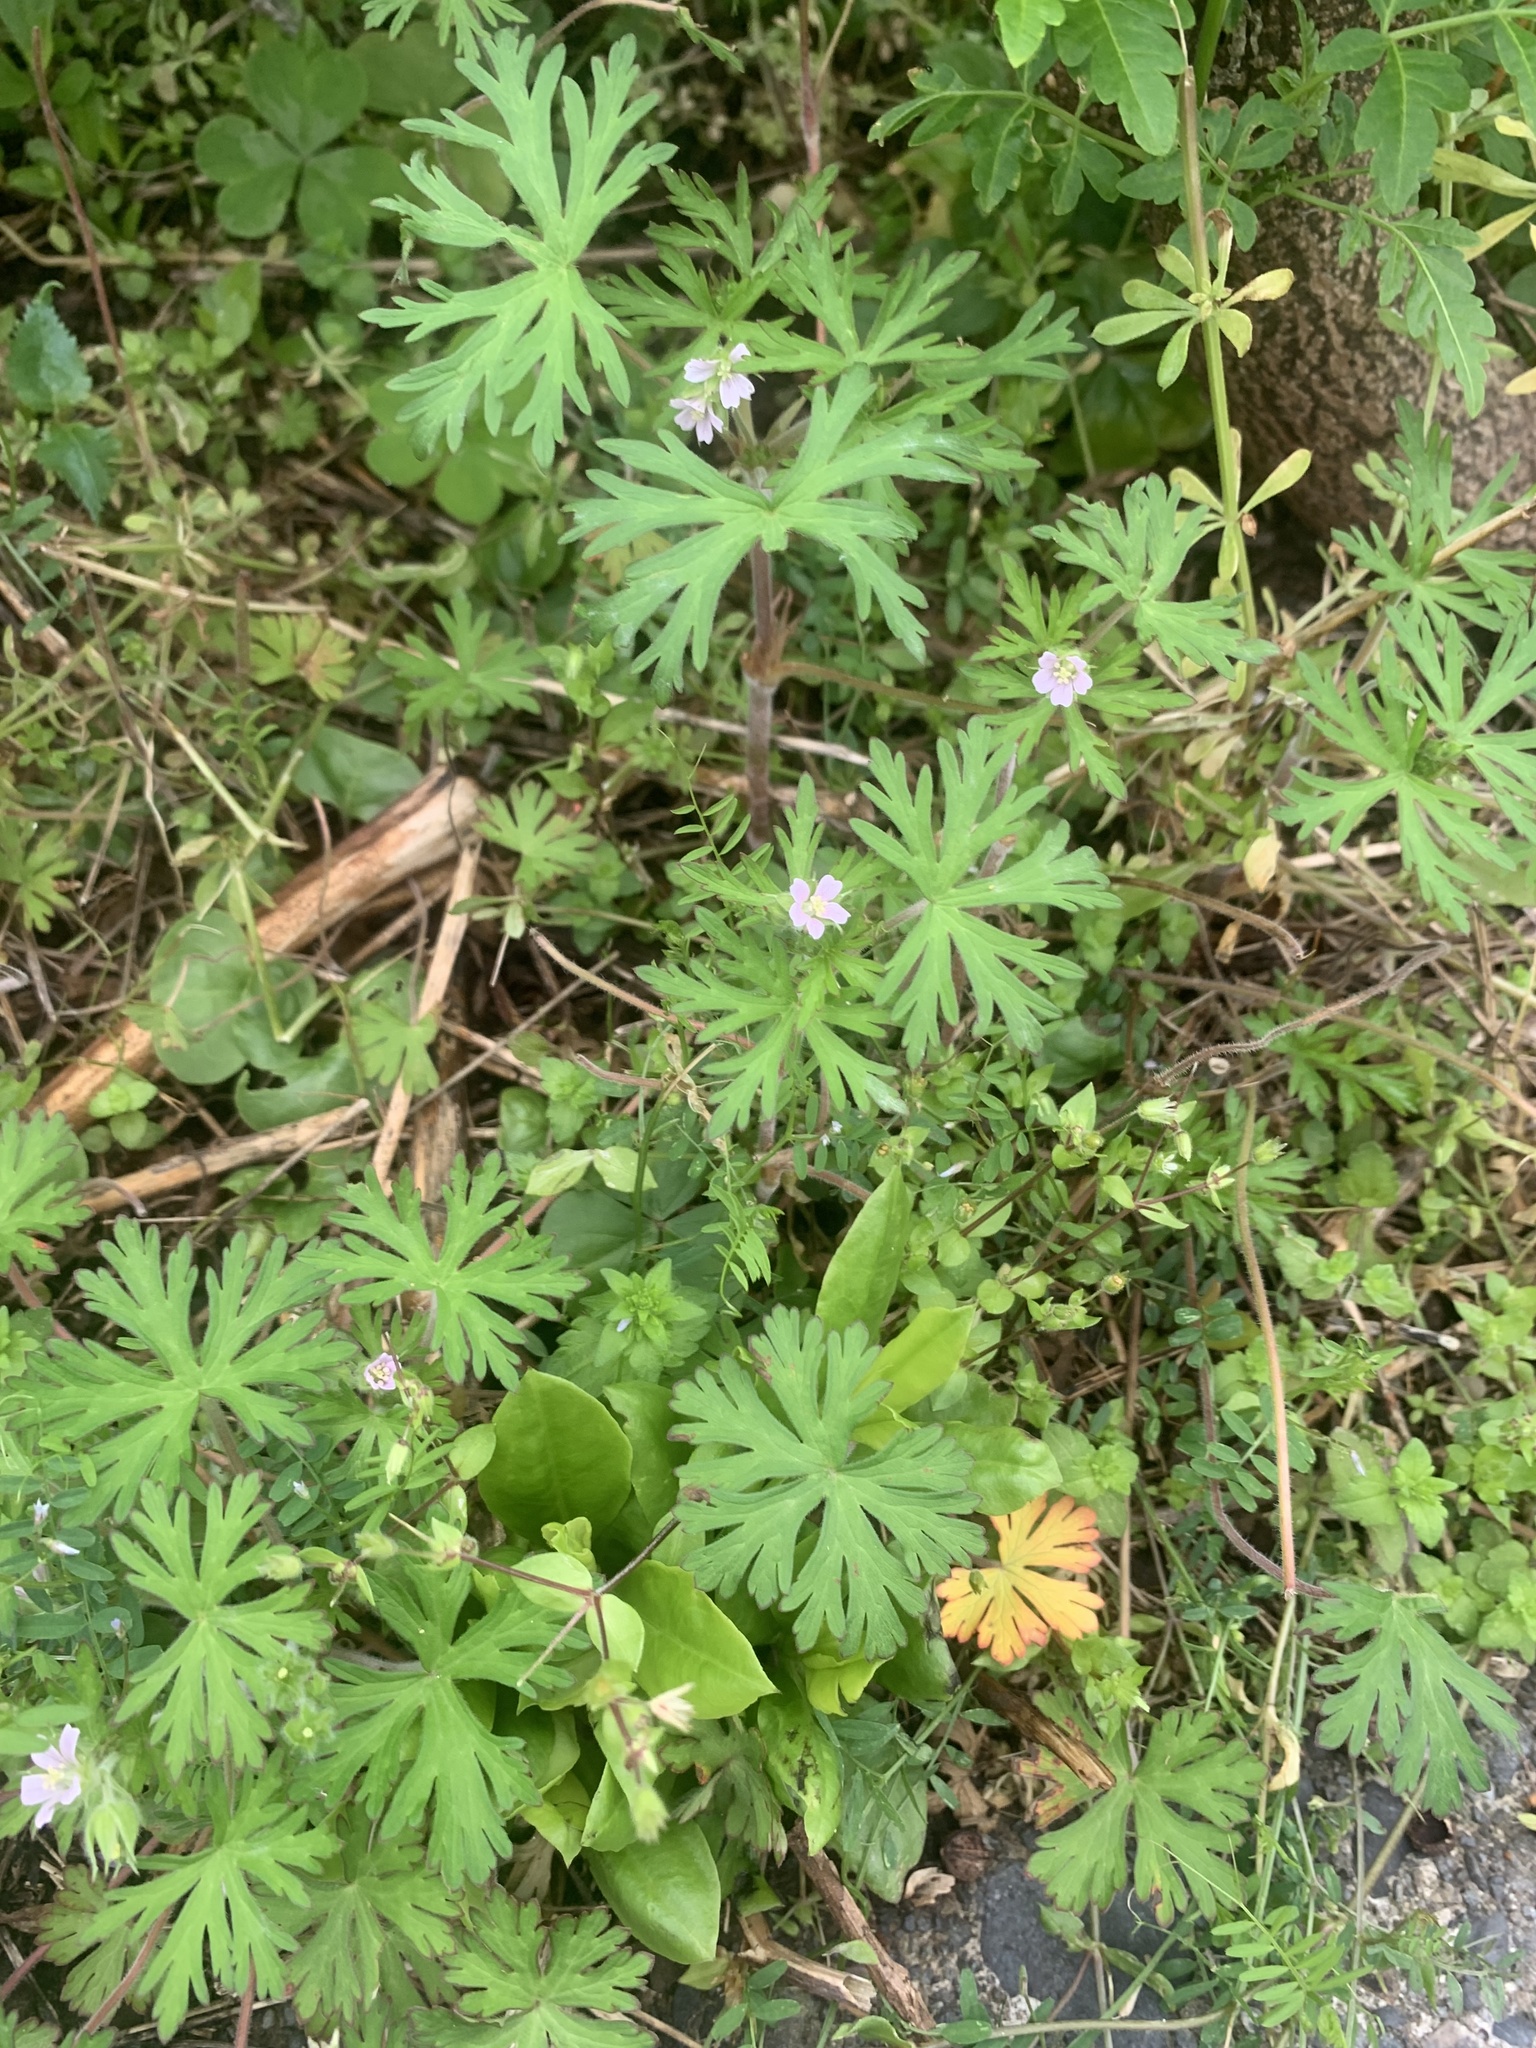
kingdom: Plantae
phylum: Tracheophyta
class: Magnoliopsida
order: Geraniales
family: Geraniaceae
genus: Geranium
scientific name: Geranium carolinianum
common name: Carolina crane's-bill
